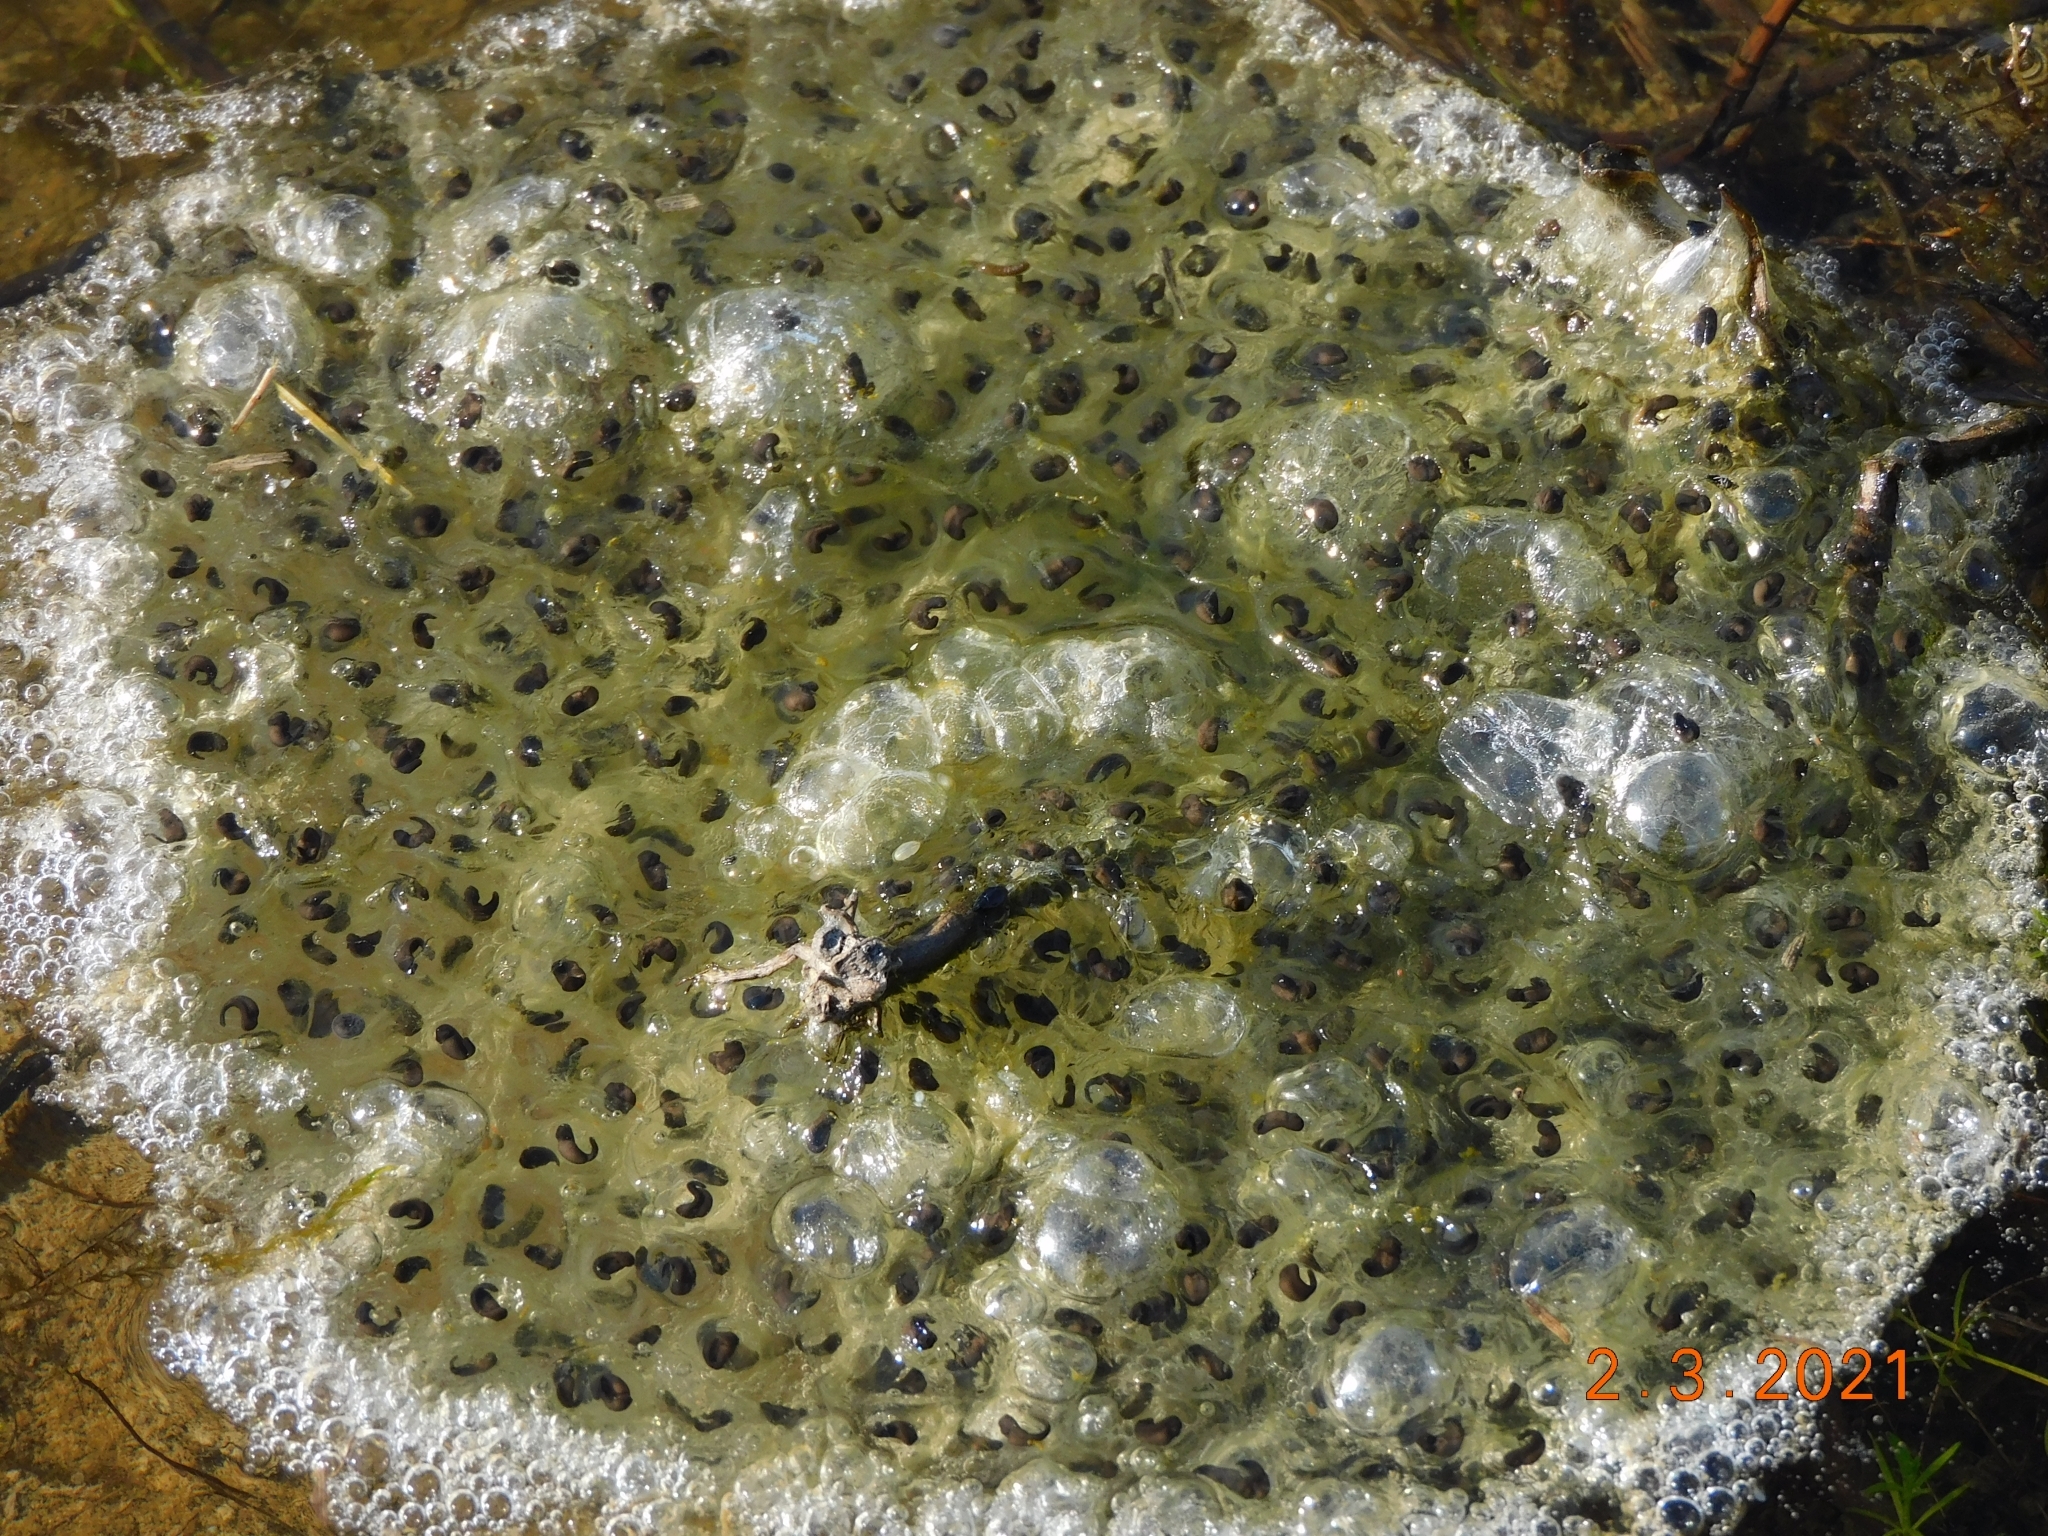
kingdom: Animalia
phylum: Chordata
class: Amphibia
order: Anura
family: Ranidae
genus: Rana
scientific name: Rana dalmatina
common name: Agile frog
